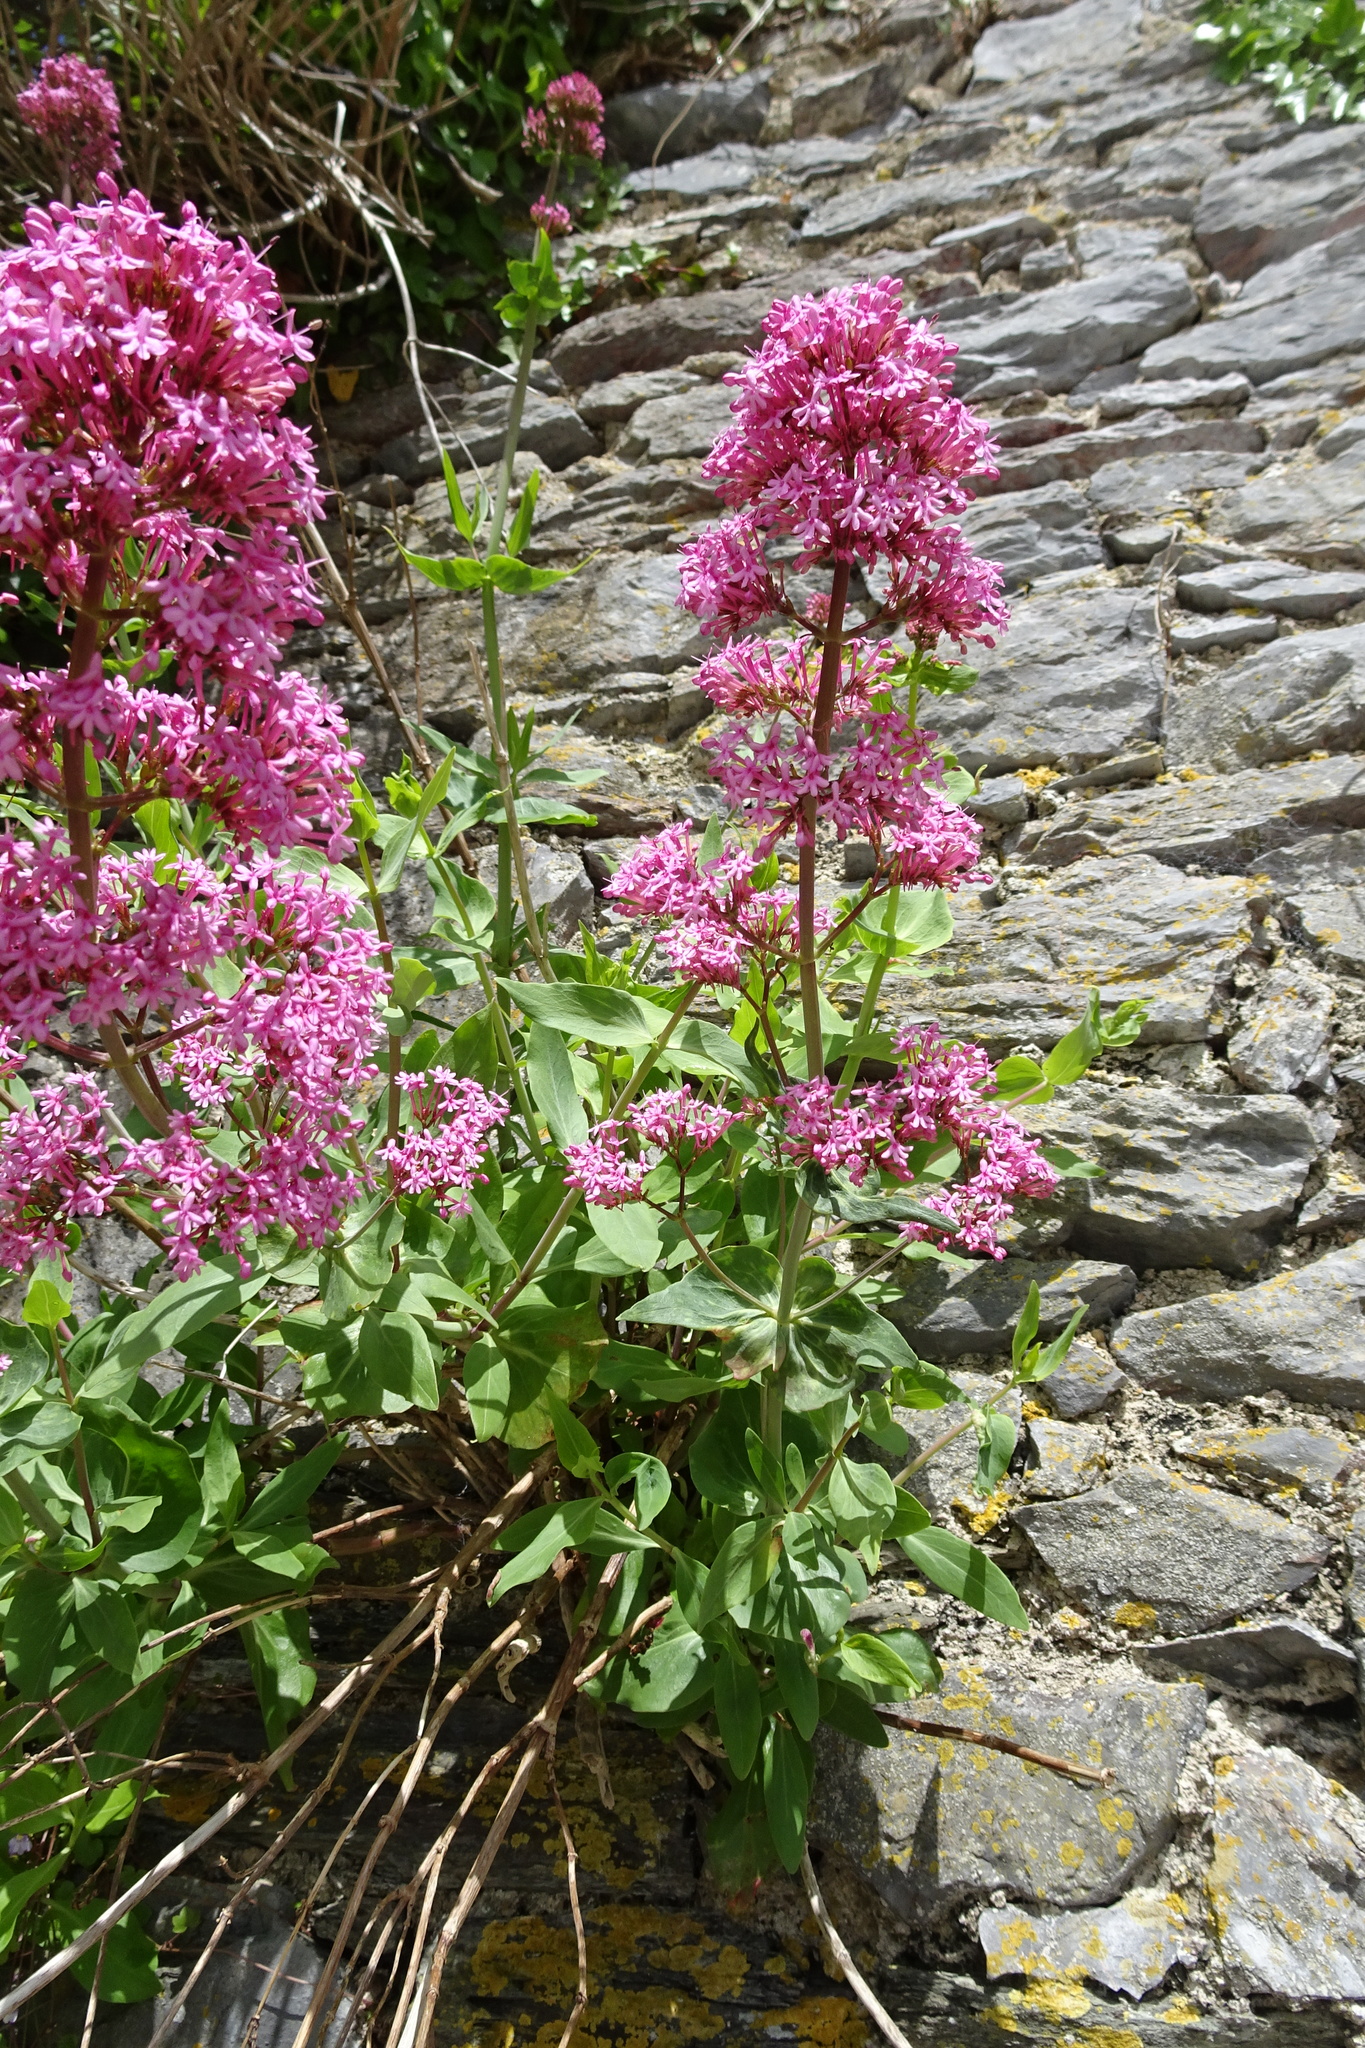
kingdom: Plantae
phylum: Tracheophyta
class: Magnoliopsida
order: Dipsacales
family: Caprifoliaceae
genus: Centranthus
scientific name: Centranthus ruber
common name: Red valerian
